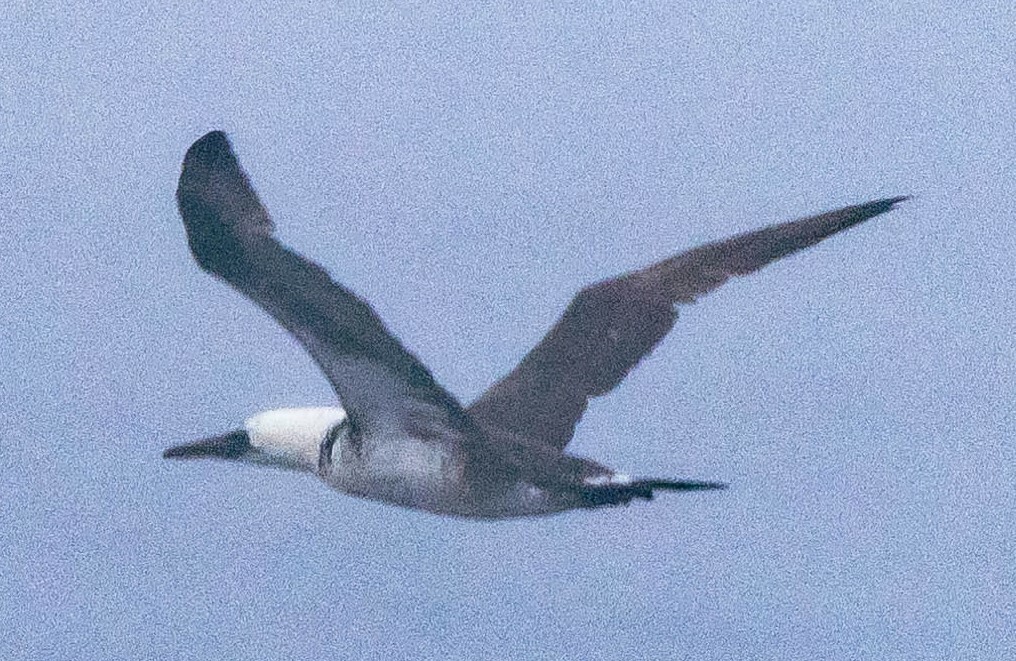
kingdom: Animalia
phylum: Chordata
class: Aves
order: Suliformes
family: Sulidae
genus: Morus
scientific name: Morus bassanus
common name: Northern gannet
